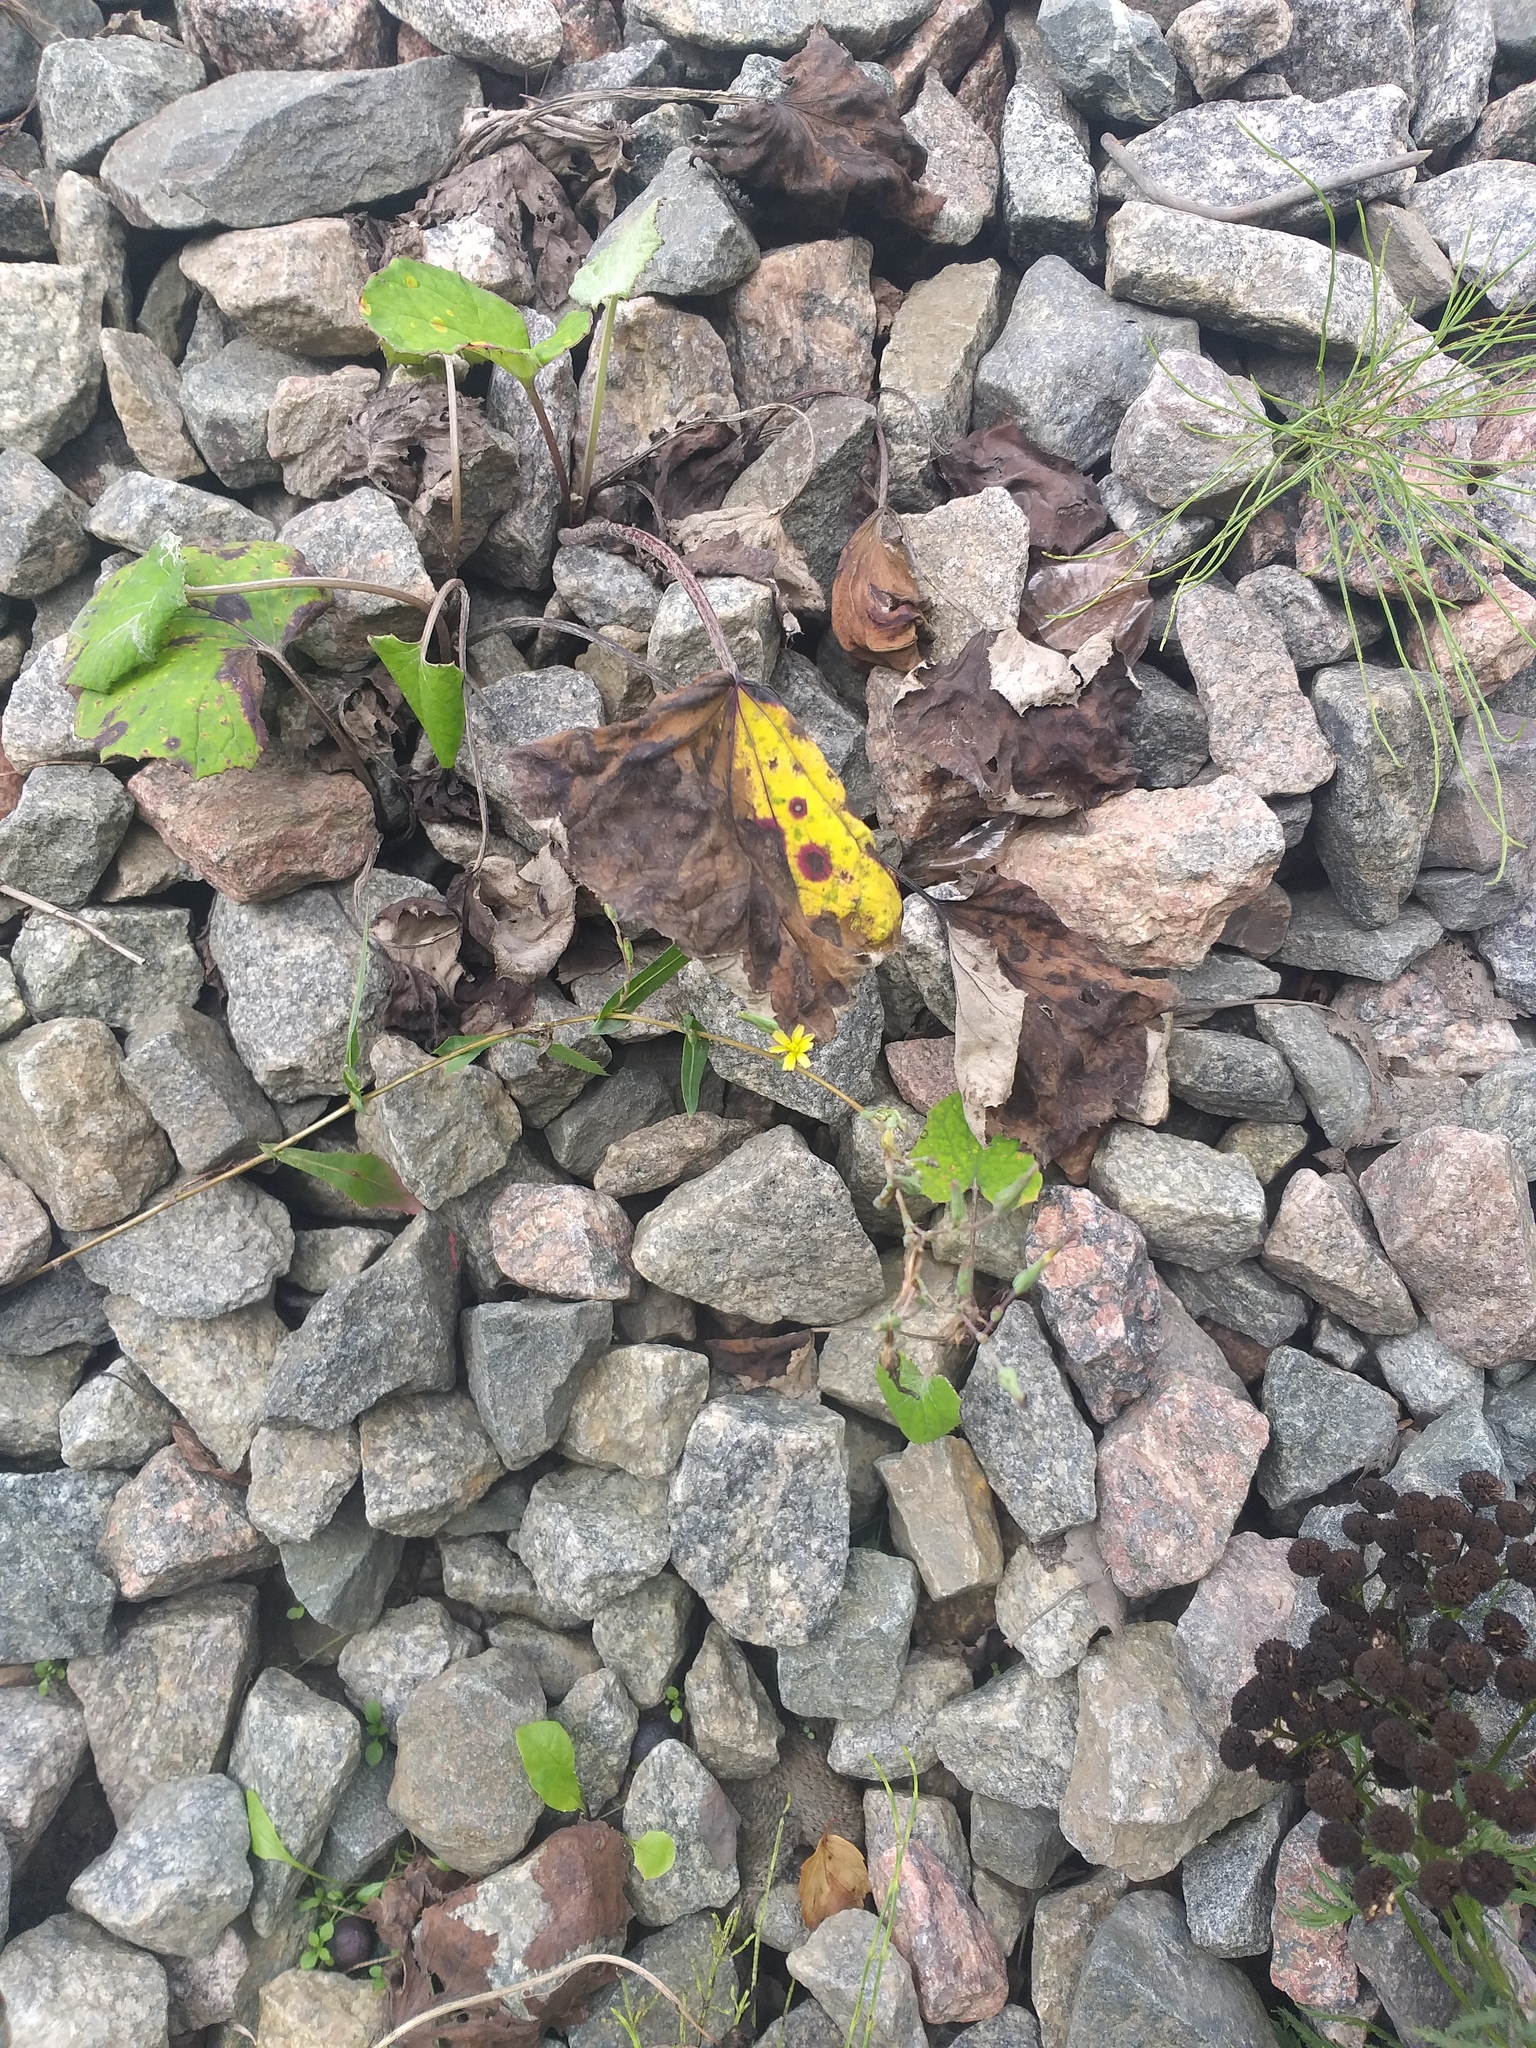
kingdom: Plantae
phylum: Tracheophyta
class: Magnoliopsida
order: Asterales
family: Asteraceae
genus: Lactuca
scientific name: Lactuca serriola
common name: Prickly lettuce
